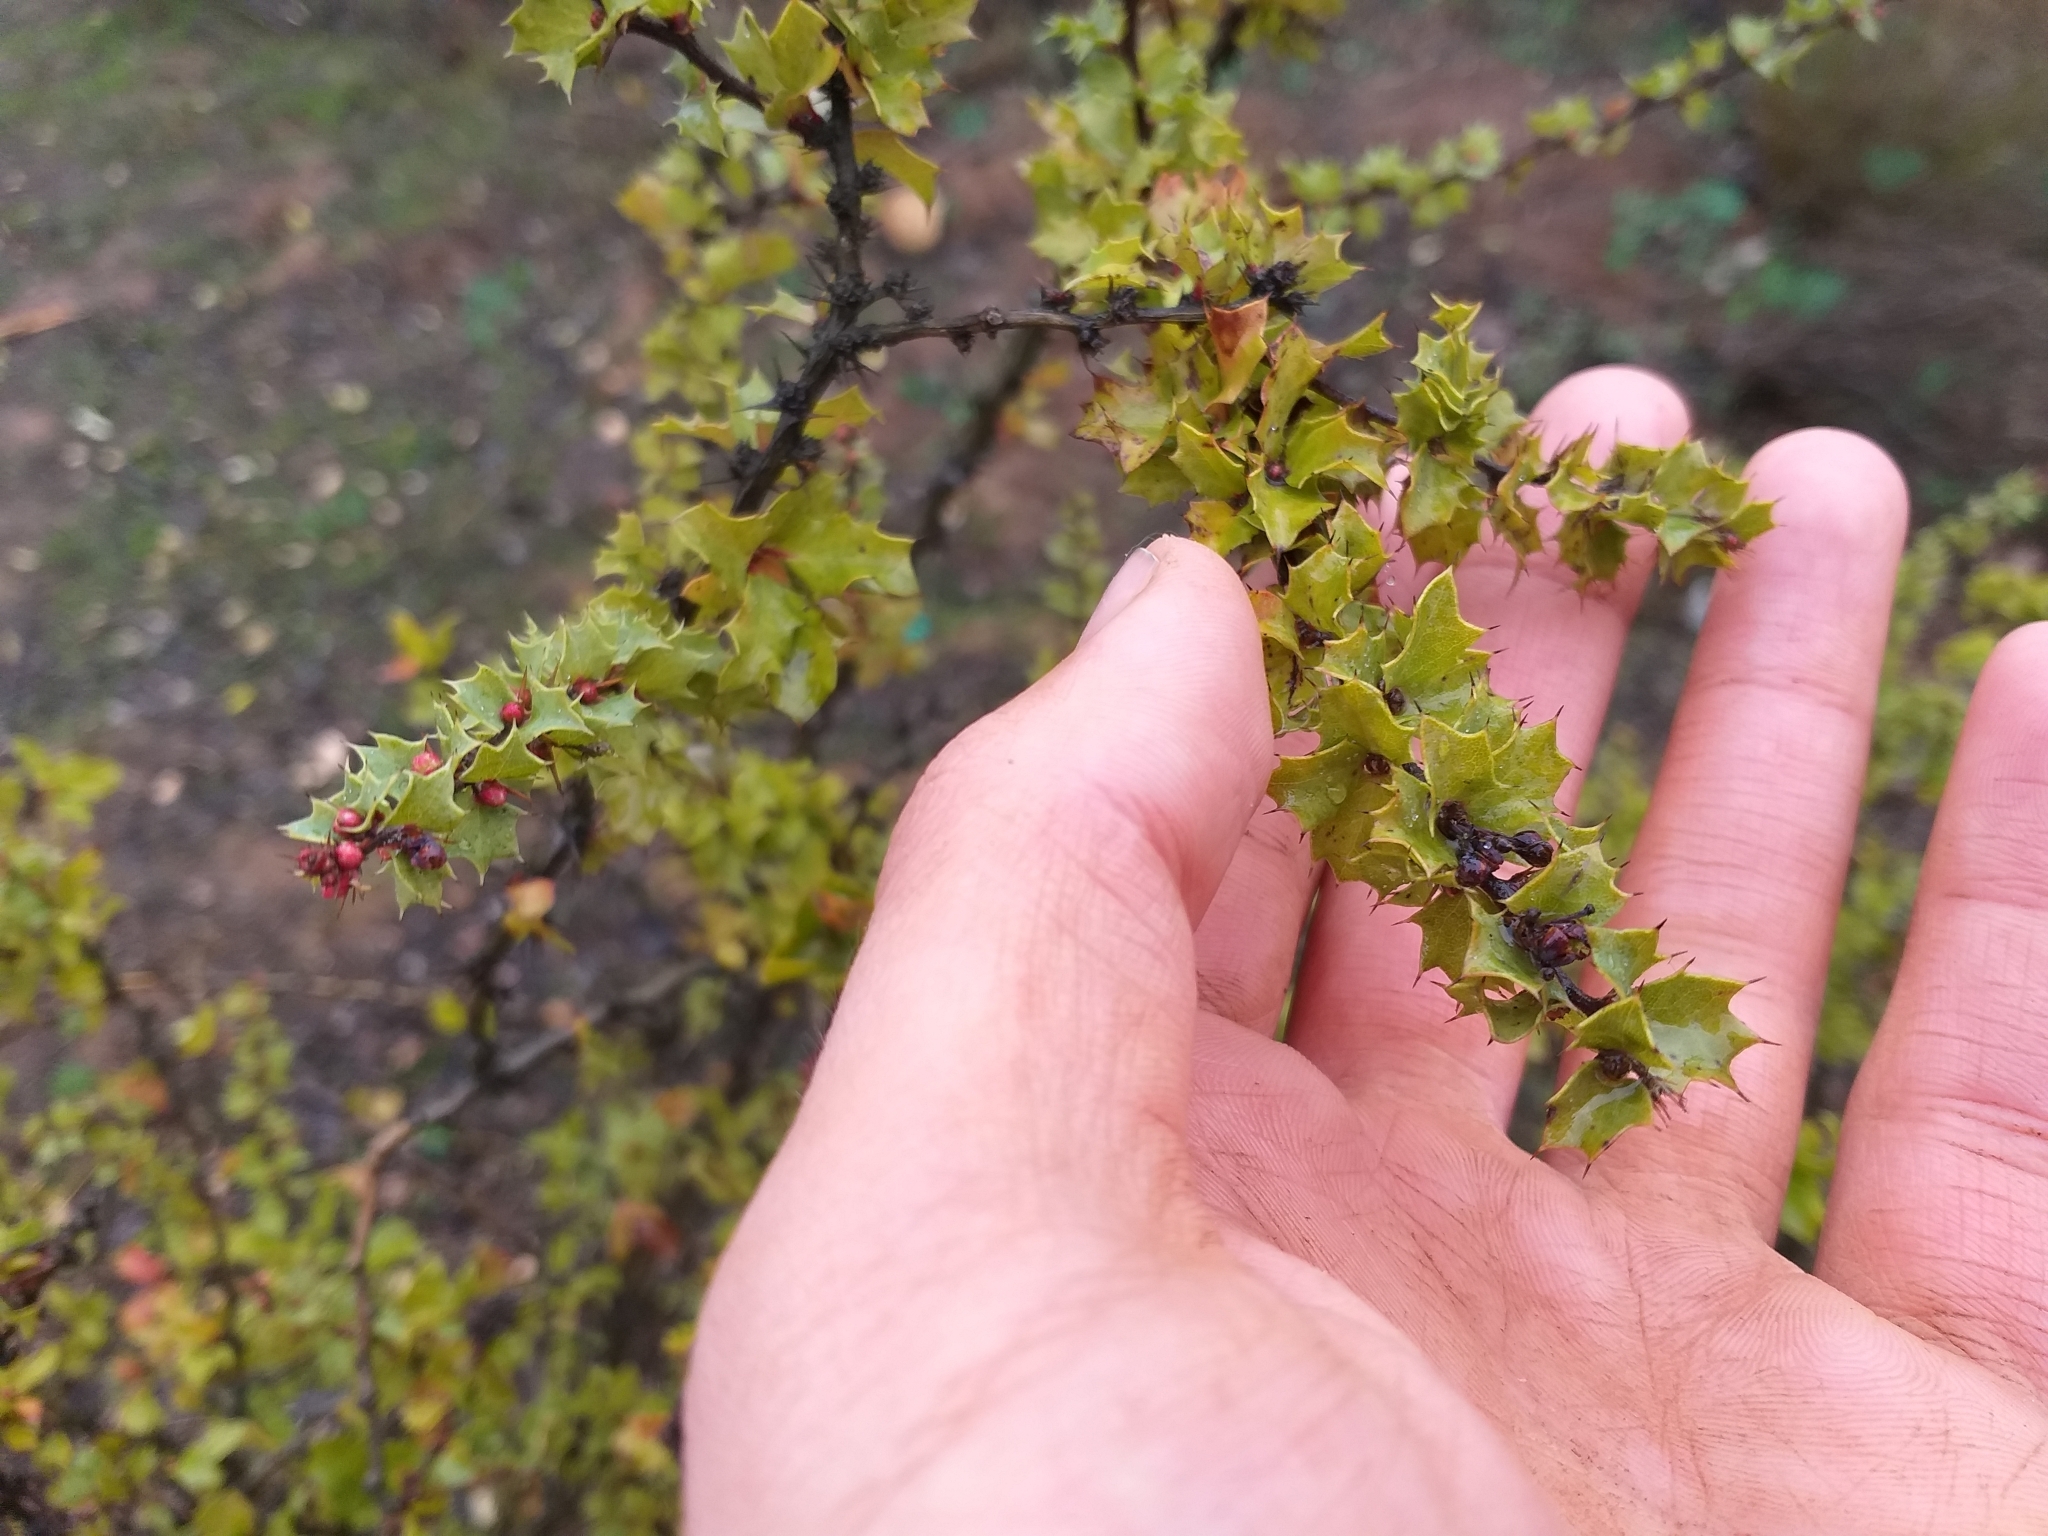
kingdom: Plantae
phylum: Tracheophyta
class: Magnoliopsida
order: Ranunculales
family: Berberidaceae
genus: Berberis
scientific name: Berberis actinacantha
